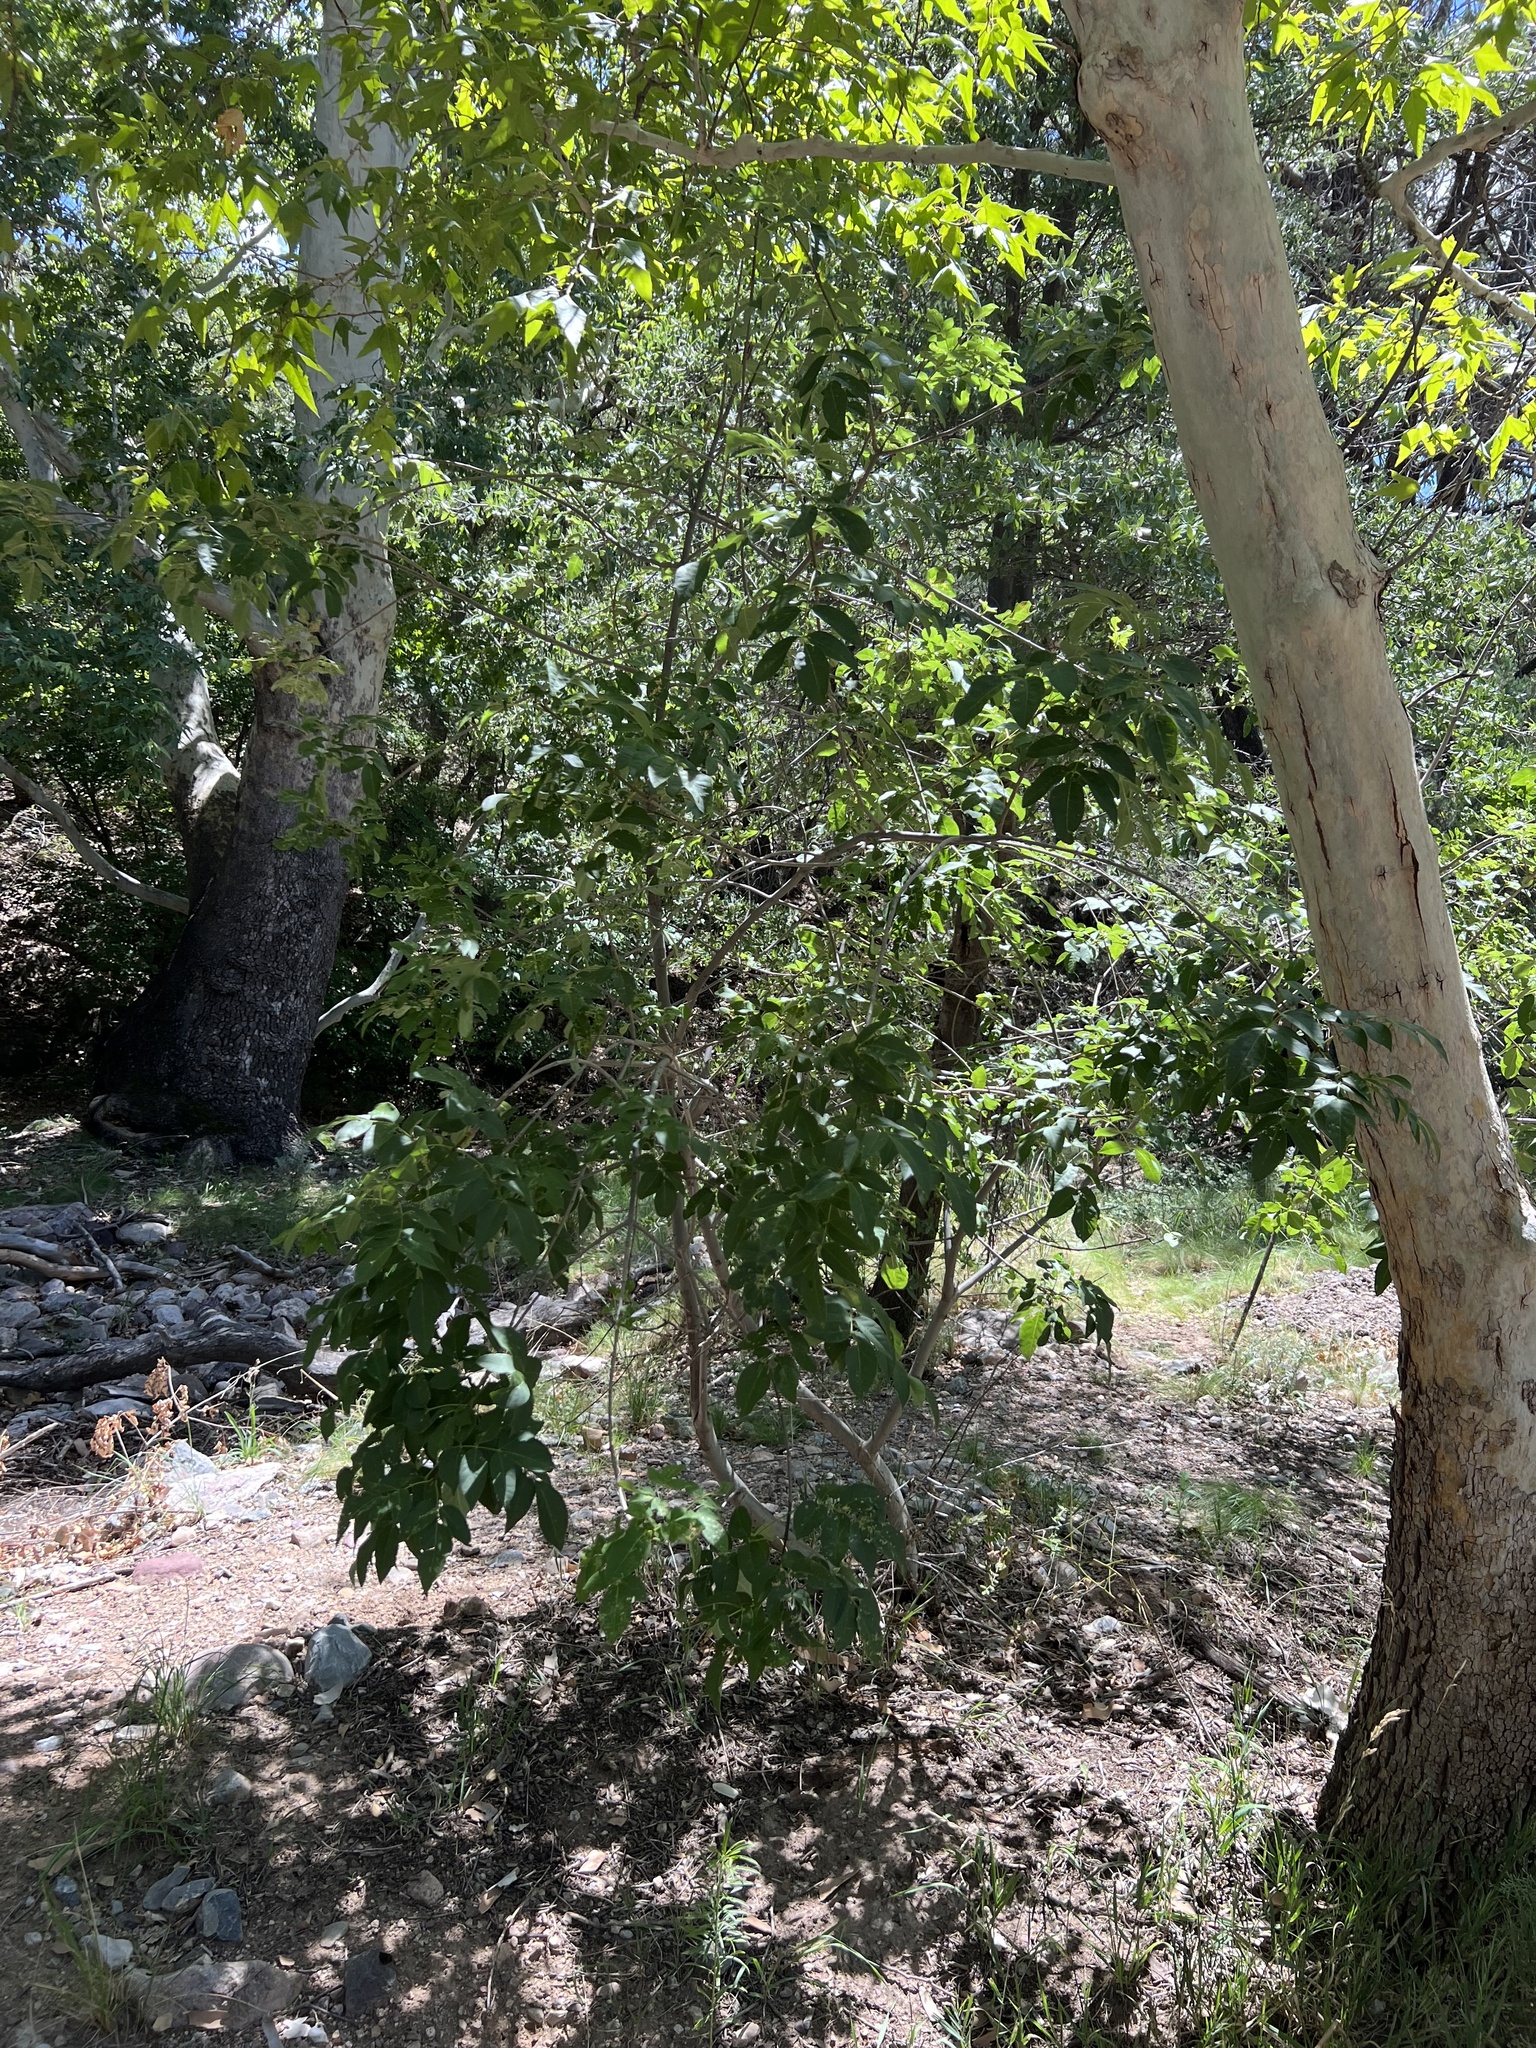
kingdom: Plantae
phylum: Tracheophyta
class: Magnoliopsida
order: Lamiales
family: Oleaceae
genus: Fraxinus
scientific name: Fraxinus velutina
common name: Arizon ash
